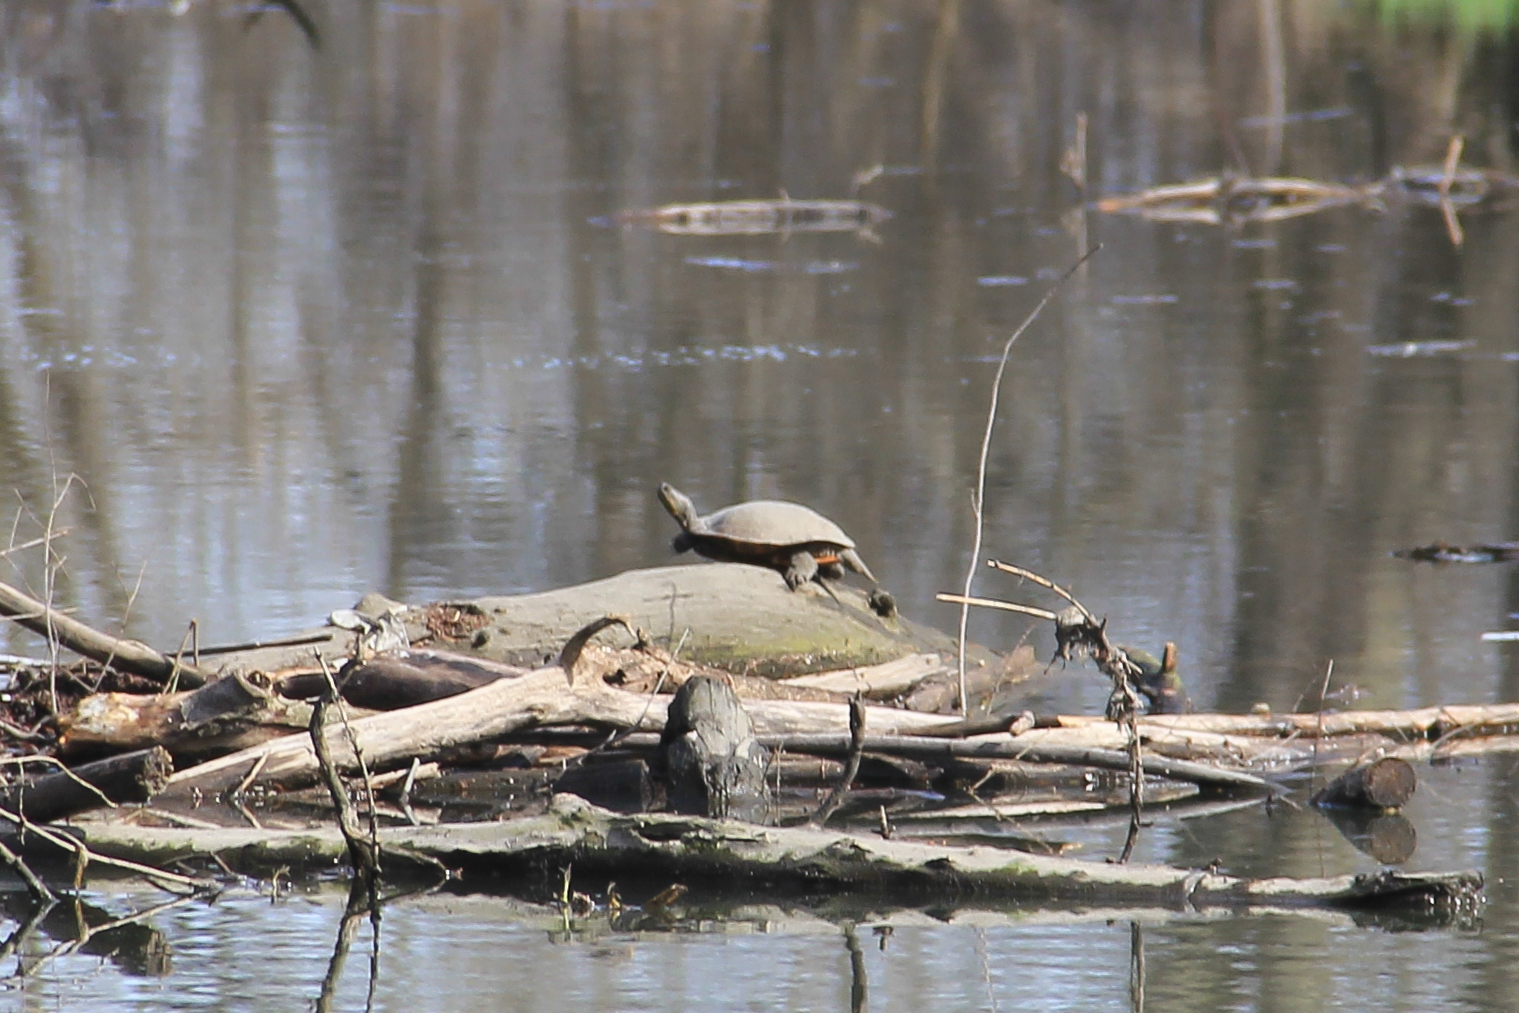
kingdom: Animalia
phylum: Chordata
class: Testudines
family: Emydidae
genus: Chrysemys
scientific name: Chrysemys picta
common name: Painted turtle
